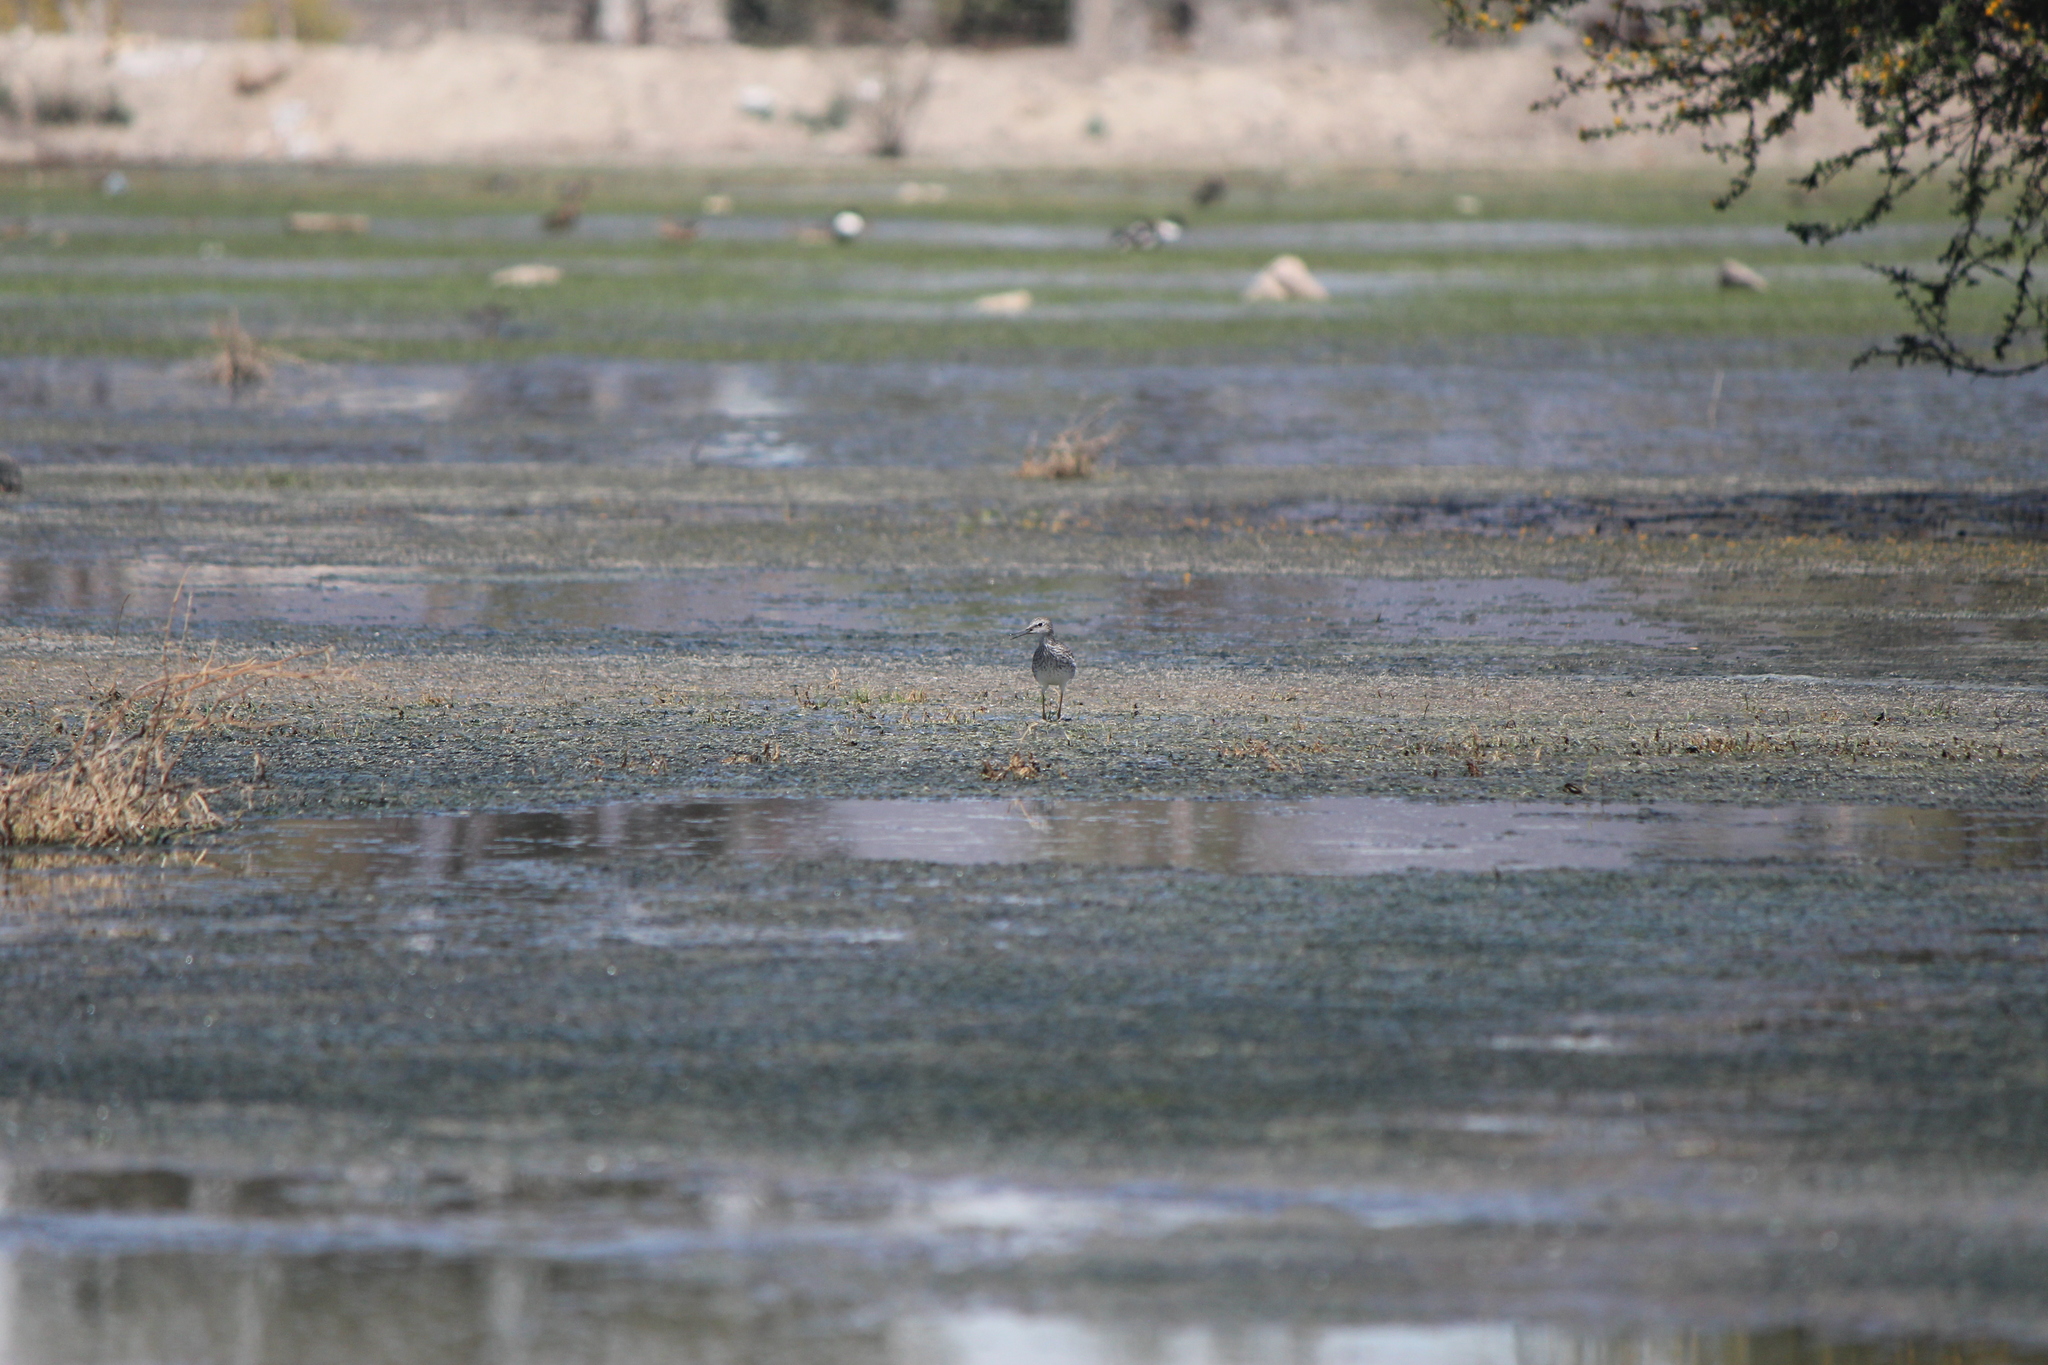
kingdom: Animalia
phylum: Chordata
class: Aves
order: Charadriiformes
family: Scolopacidae
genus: Tringa
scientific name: Tringa flavipes
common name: Lesser yellowlegs
